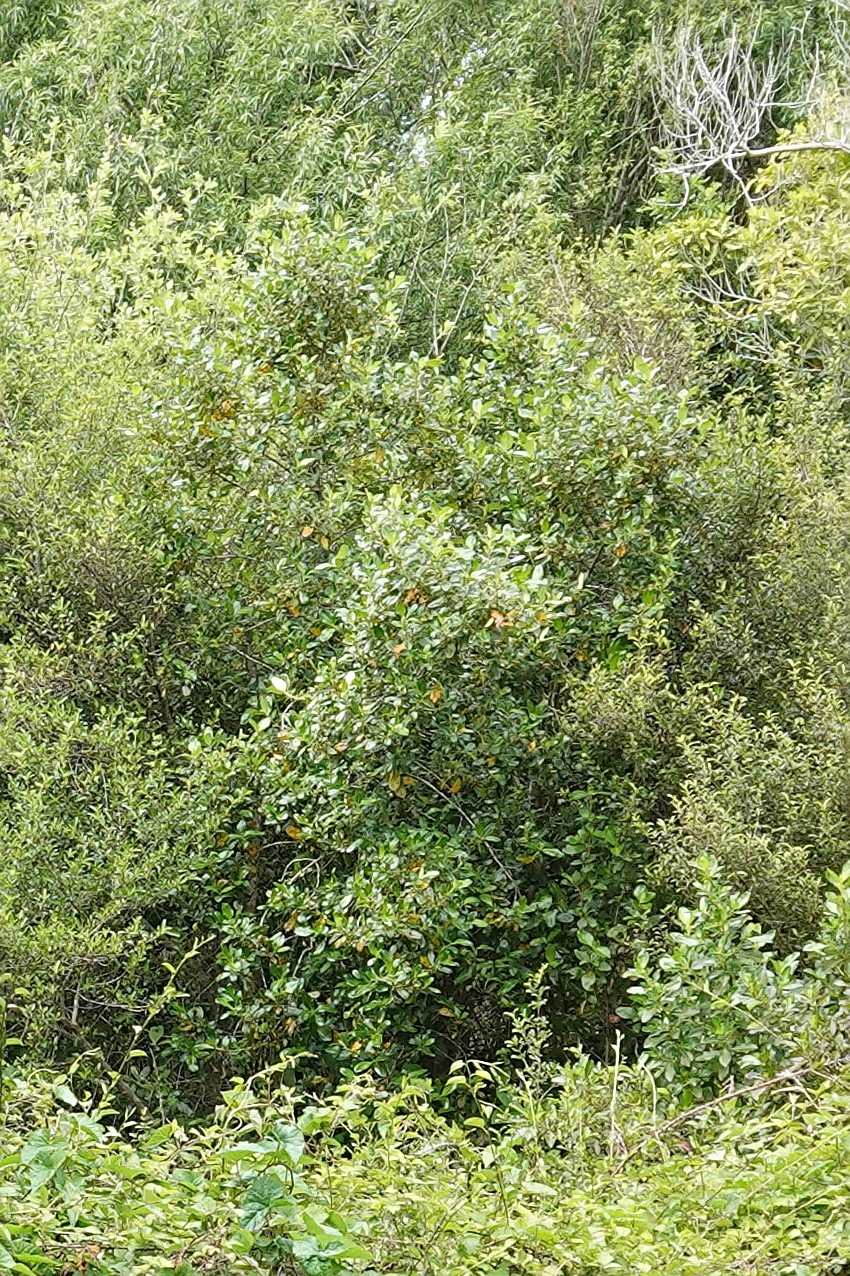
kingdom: Plantae
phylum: Tracheophyta
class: Magnoliopsida
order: Gentianales
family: Rubiaceae
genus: Coprosma
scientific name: Coprosma robusta
